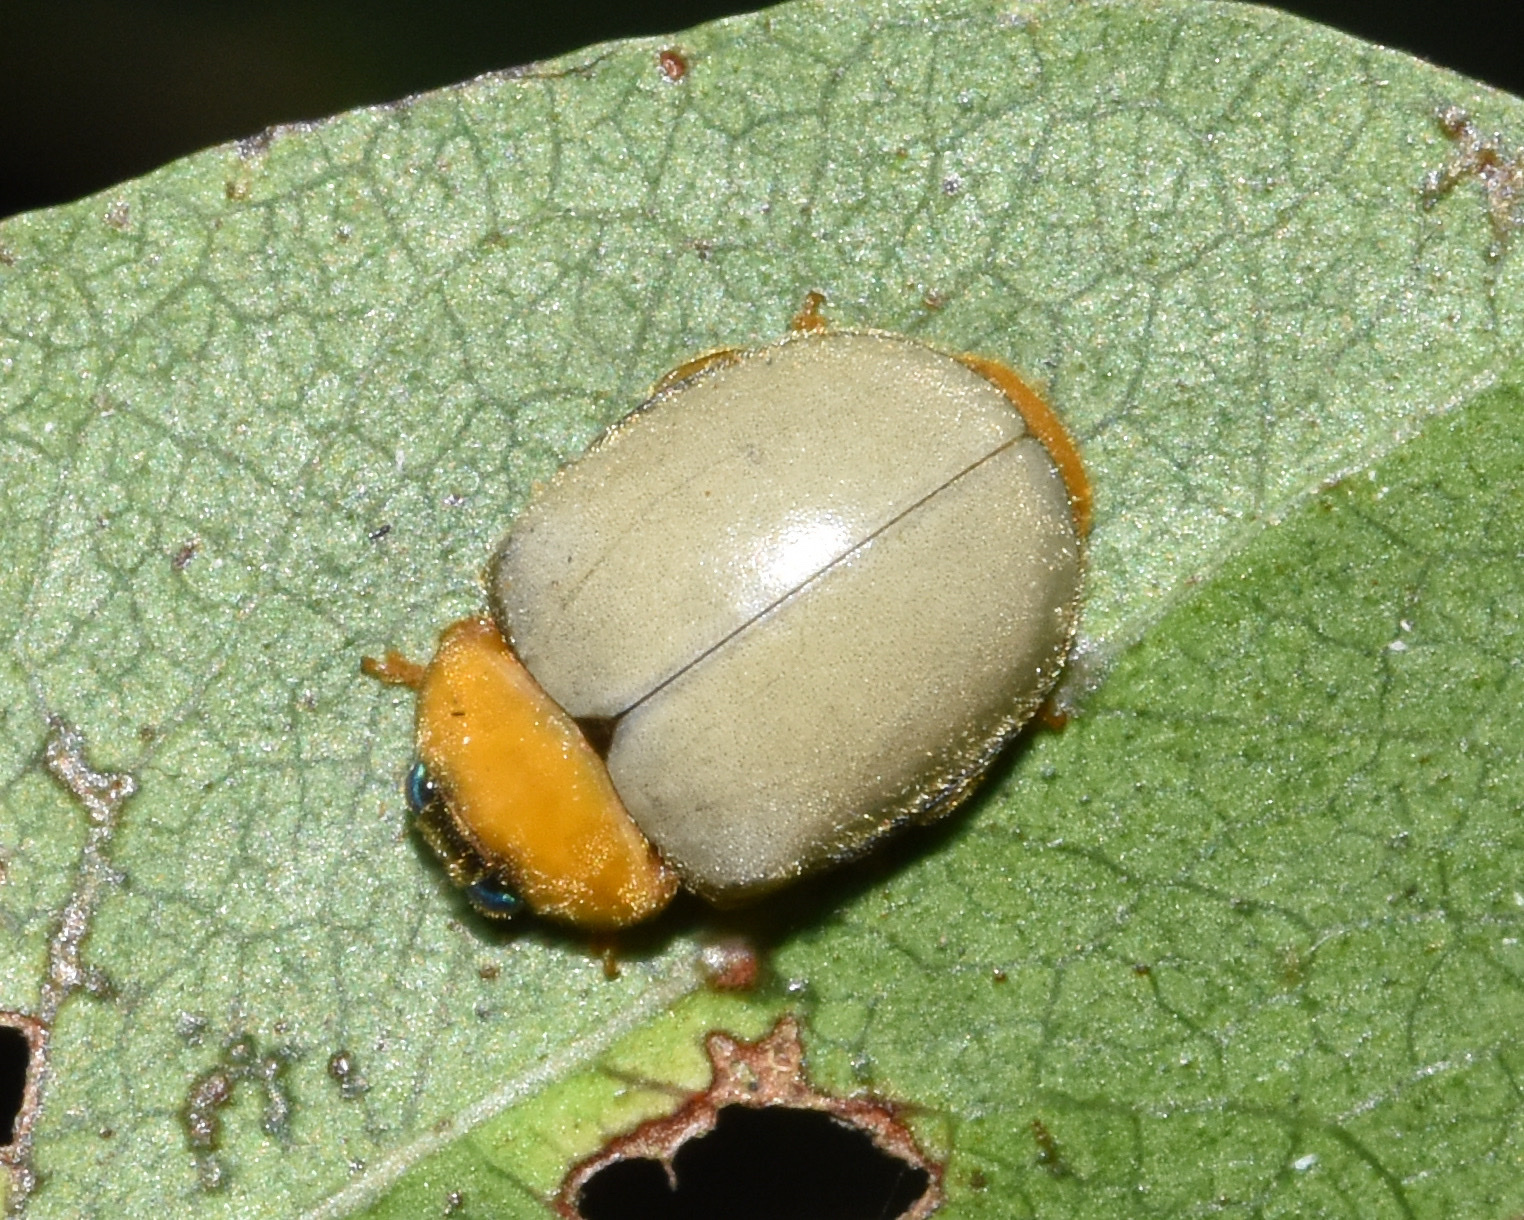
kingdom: Animalia
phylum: Arthropoda
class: Insecta
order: Coleoptera
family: Coccinellidae
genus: Ortalia
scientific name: Ortalia
